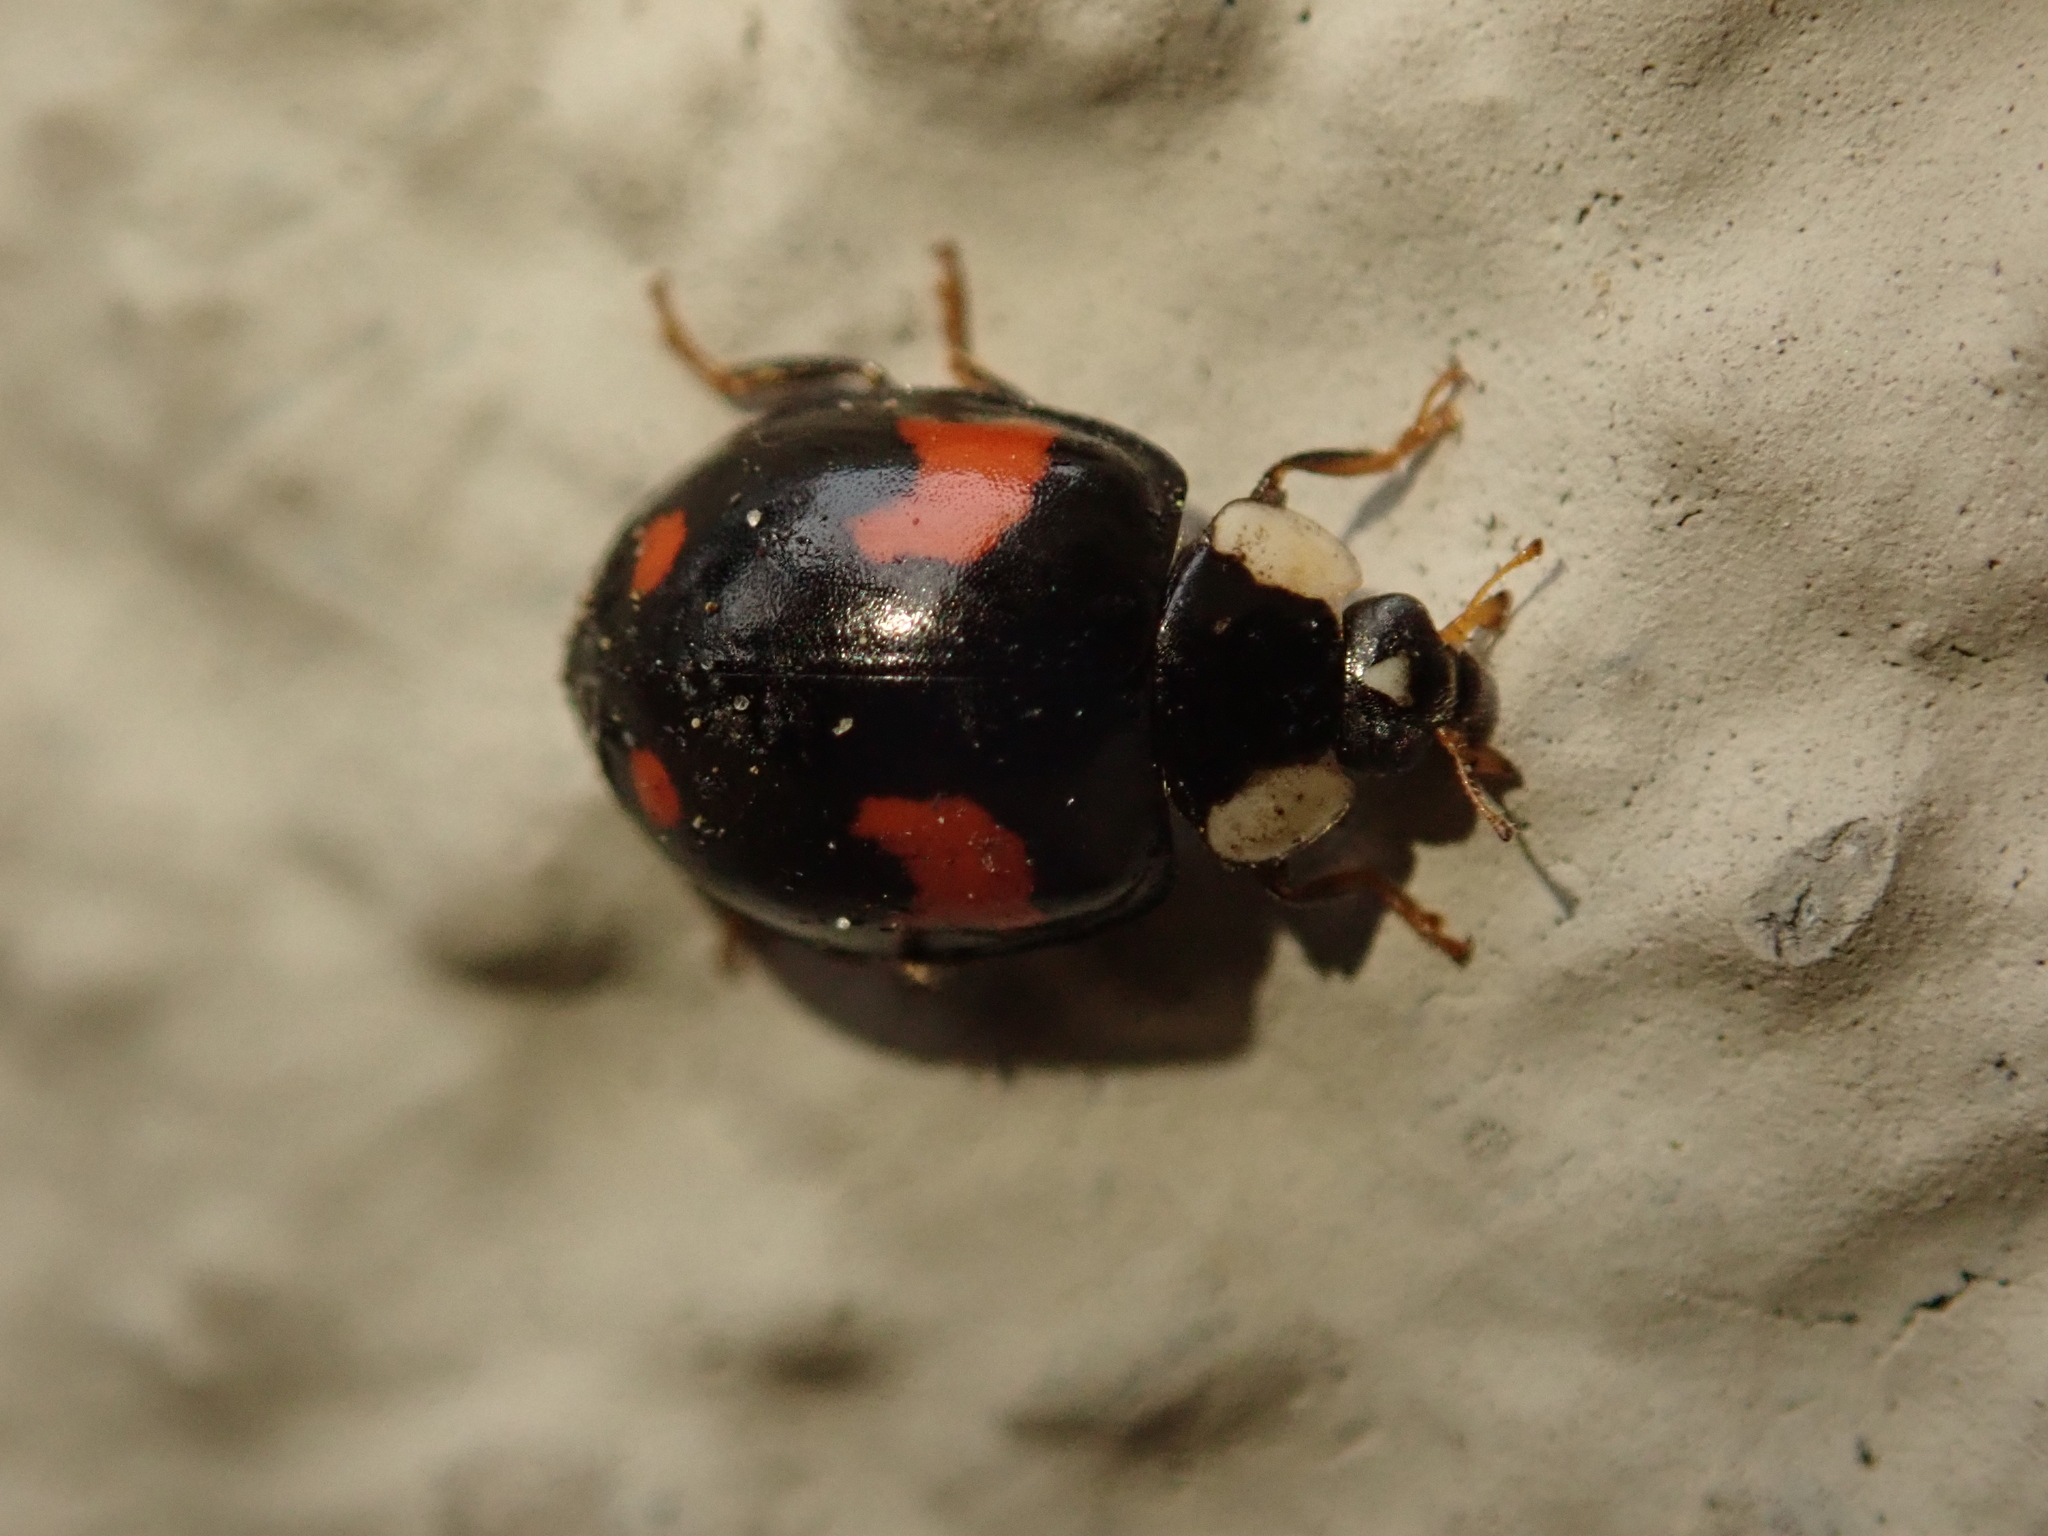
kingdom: Animalia
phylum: Arthropoda
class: Insecta
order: Coleoptera
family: Coccinellidae
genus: Harmonia
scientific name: Harmonia axyridis
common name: Harlequin ladybird
